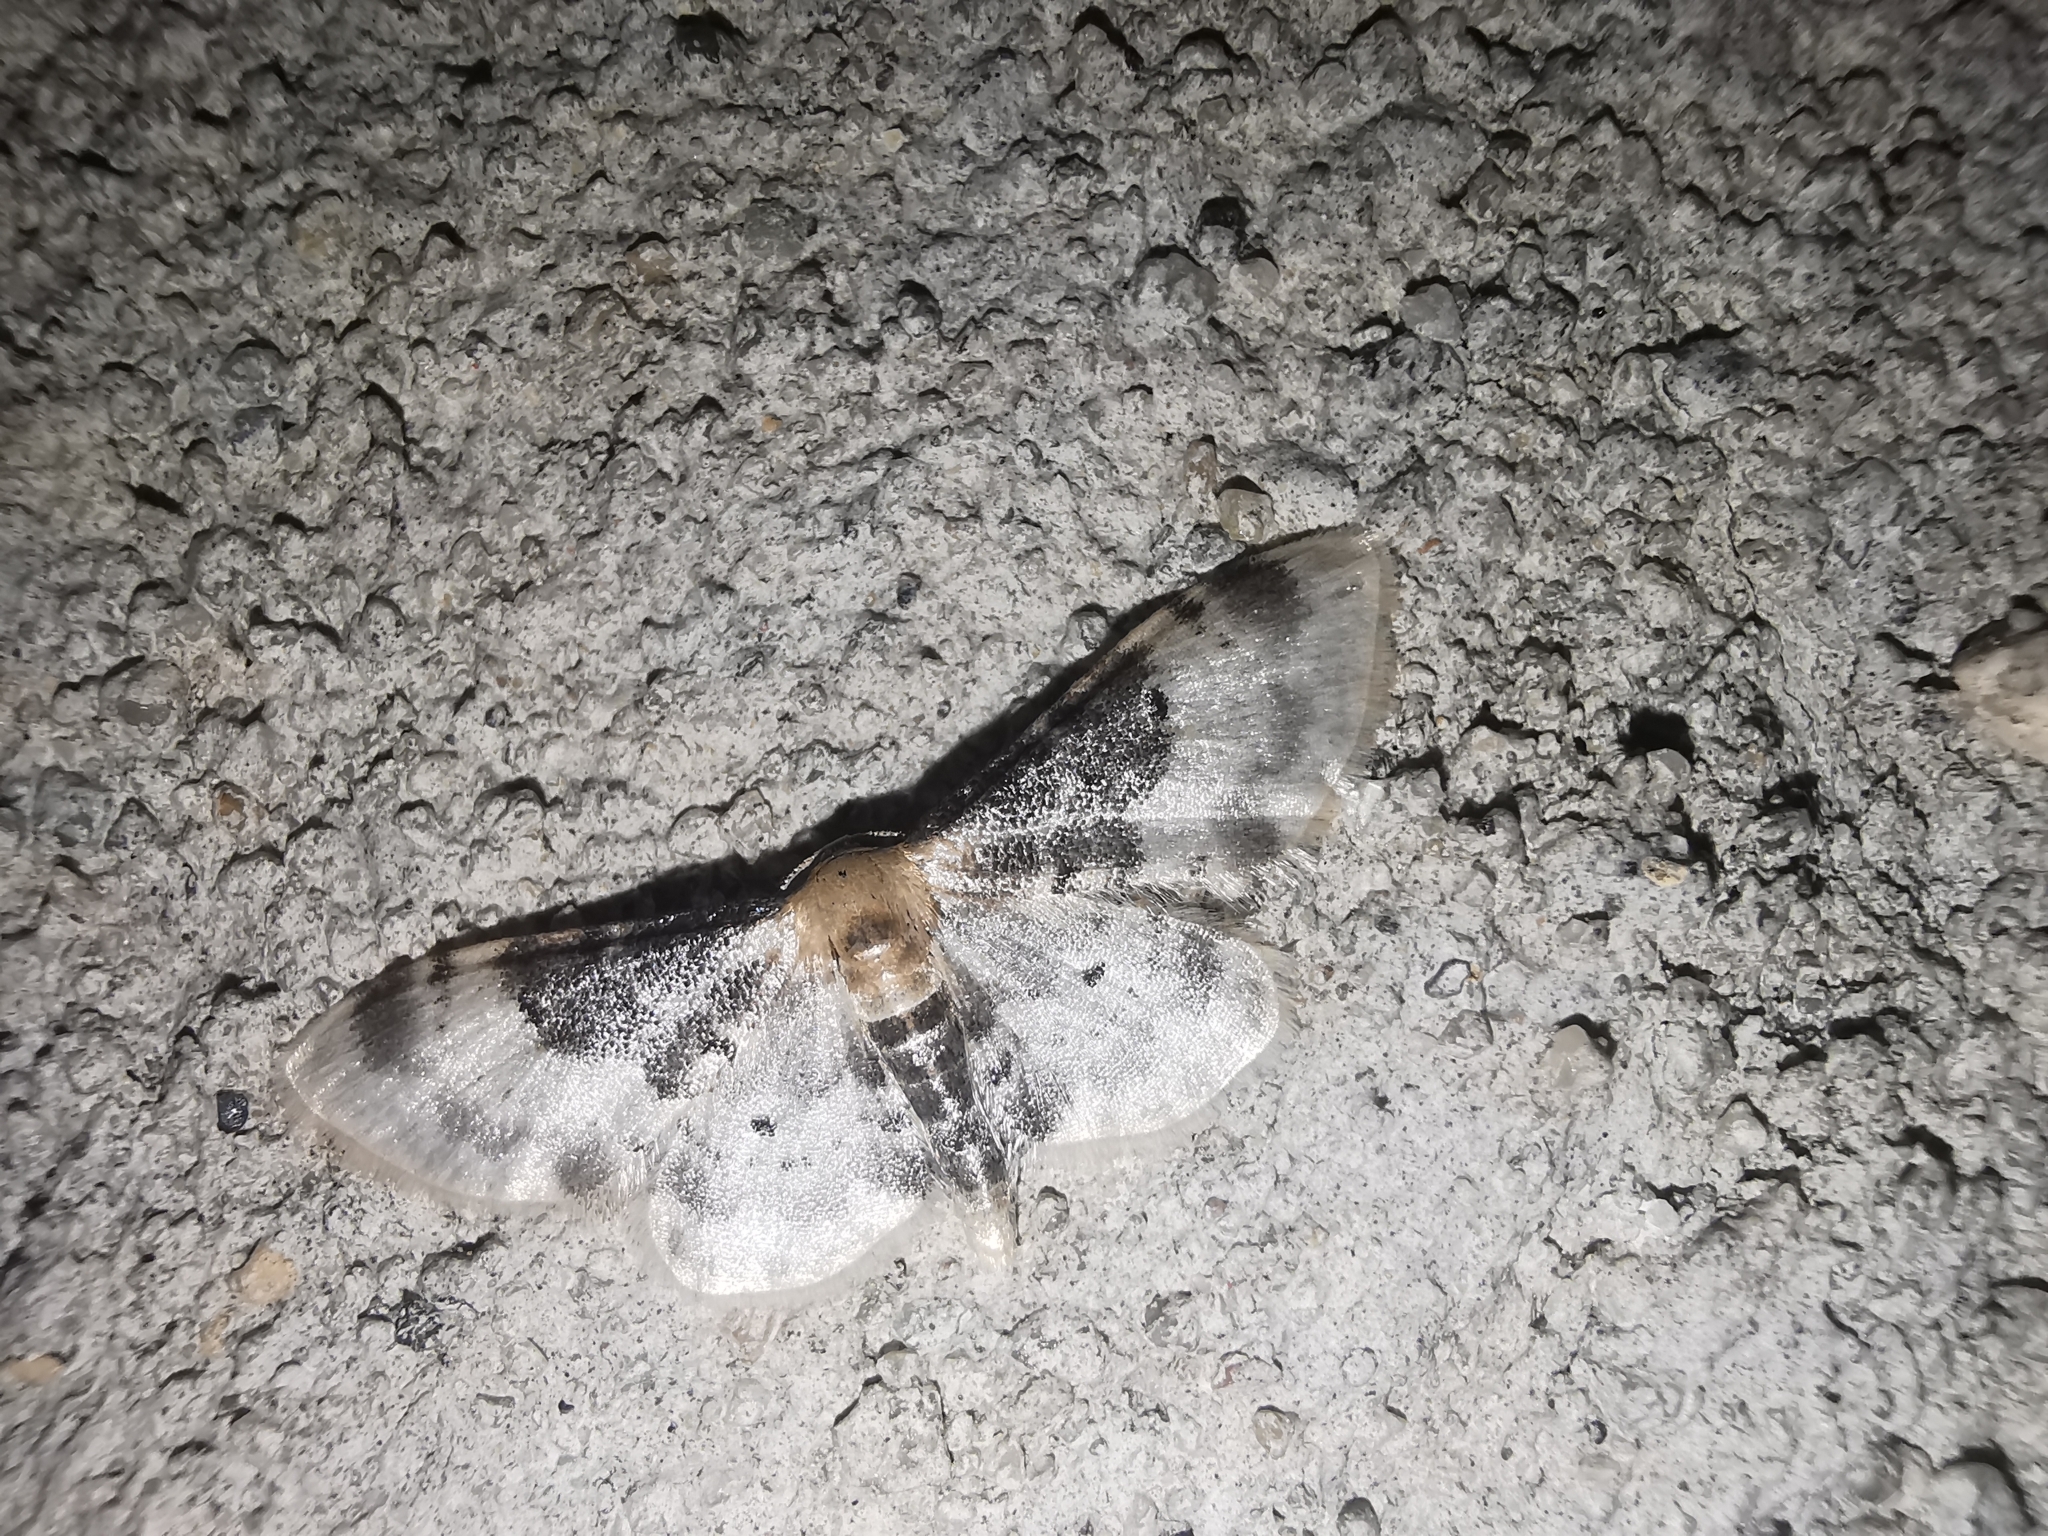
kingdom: Animalia
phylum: Arthropoda
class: Insecta
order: Lepidoptera
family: Geometridae
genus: Idaea
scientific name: Idaea filicata
